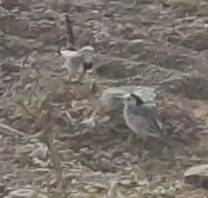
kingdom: Animalia
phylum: Chordata
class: Aves
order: Passeriformes
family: Motacillidae
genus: Motacilla
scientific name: Motacilla alba
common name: White wagtail
